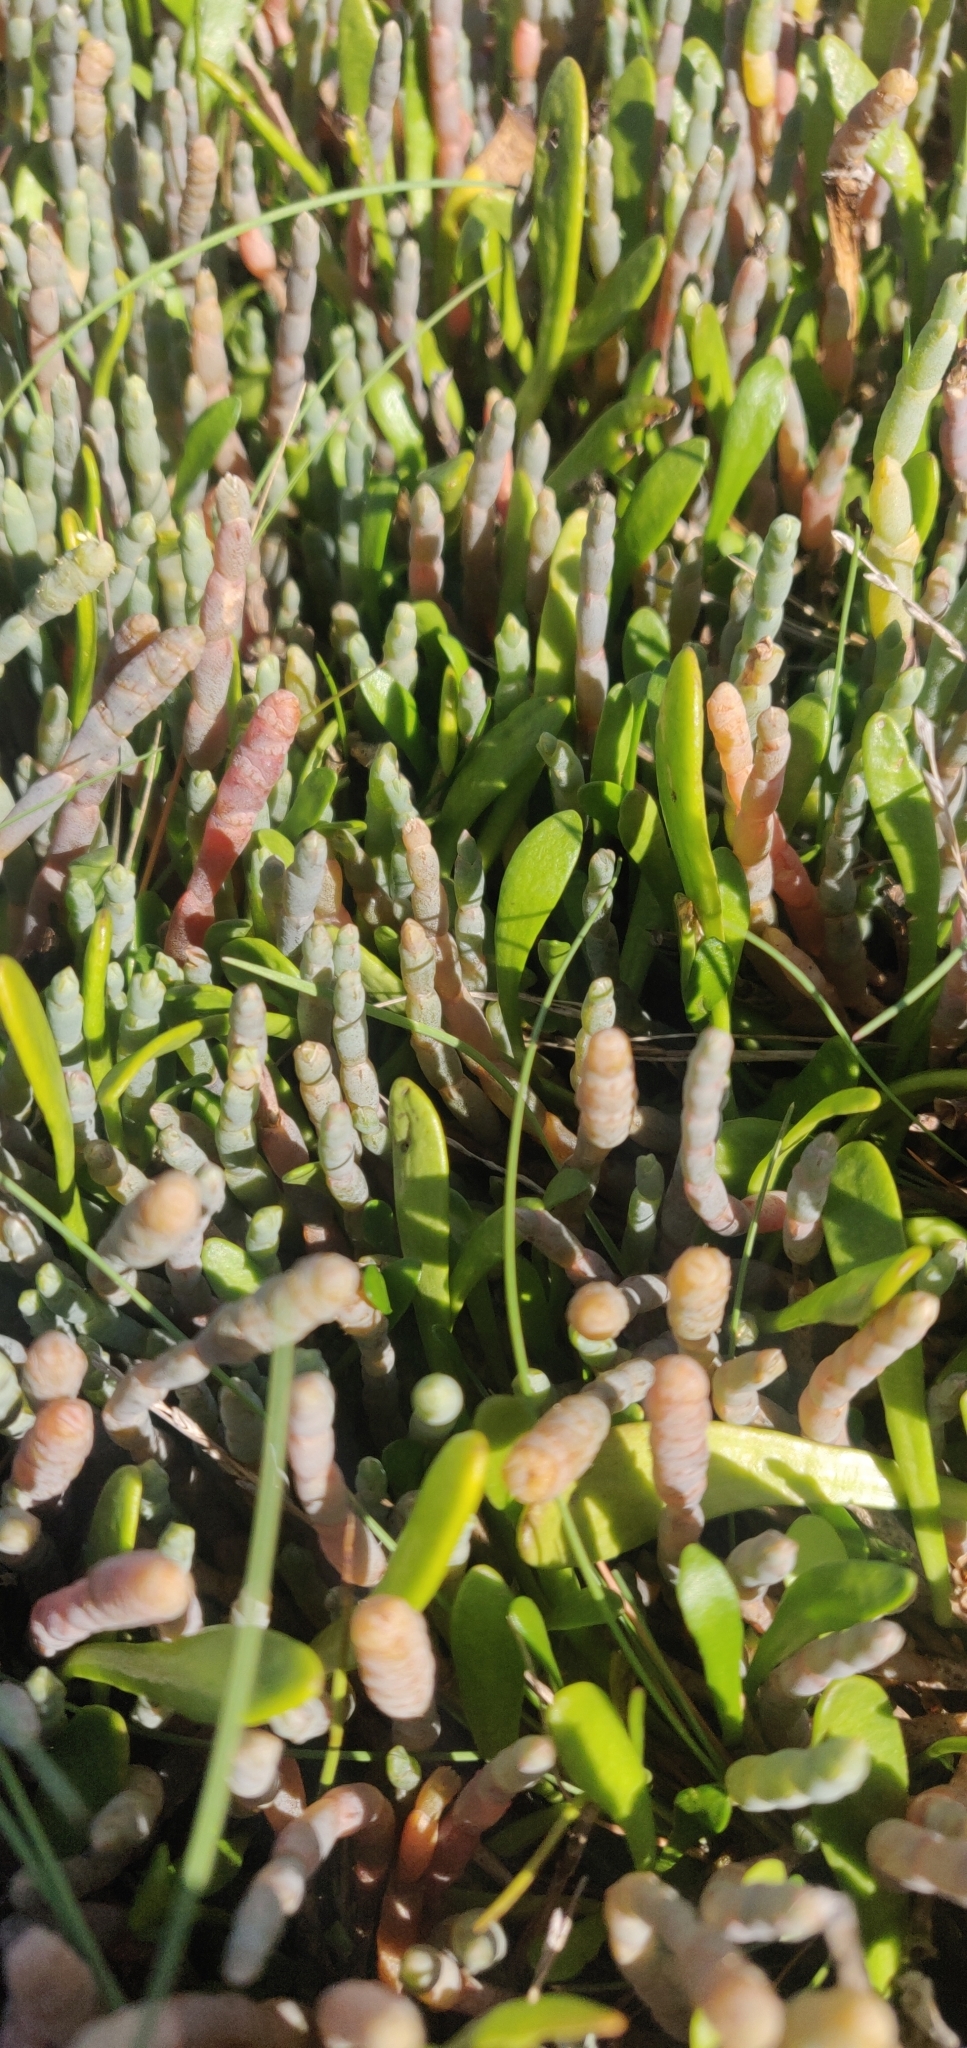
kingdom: Plantae
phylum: Tracheophyta
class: Magnoliopsida
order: Asterales
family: Goodeniaceae
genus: Goodenia
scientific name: Goodenia radicans
